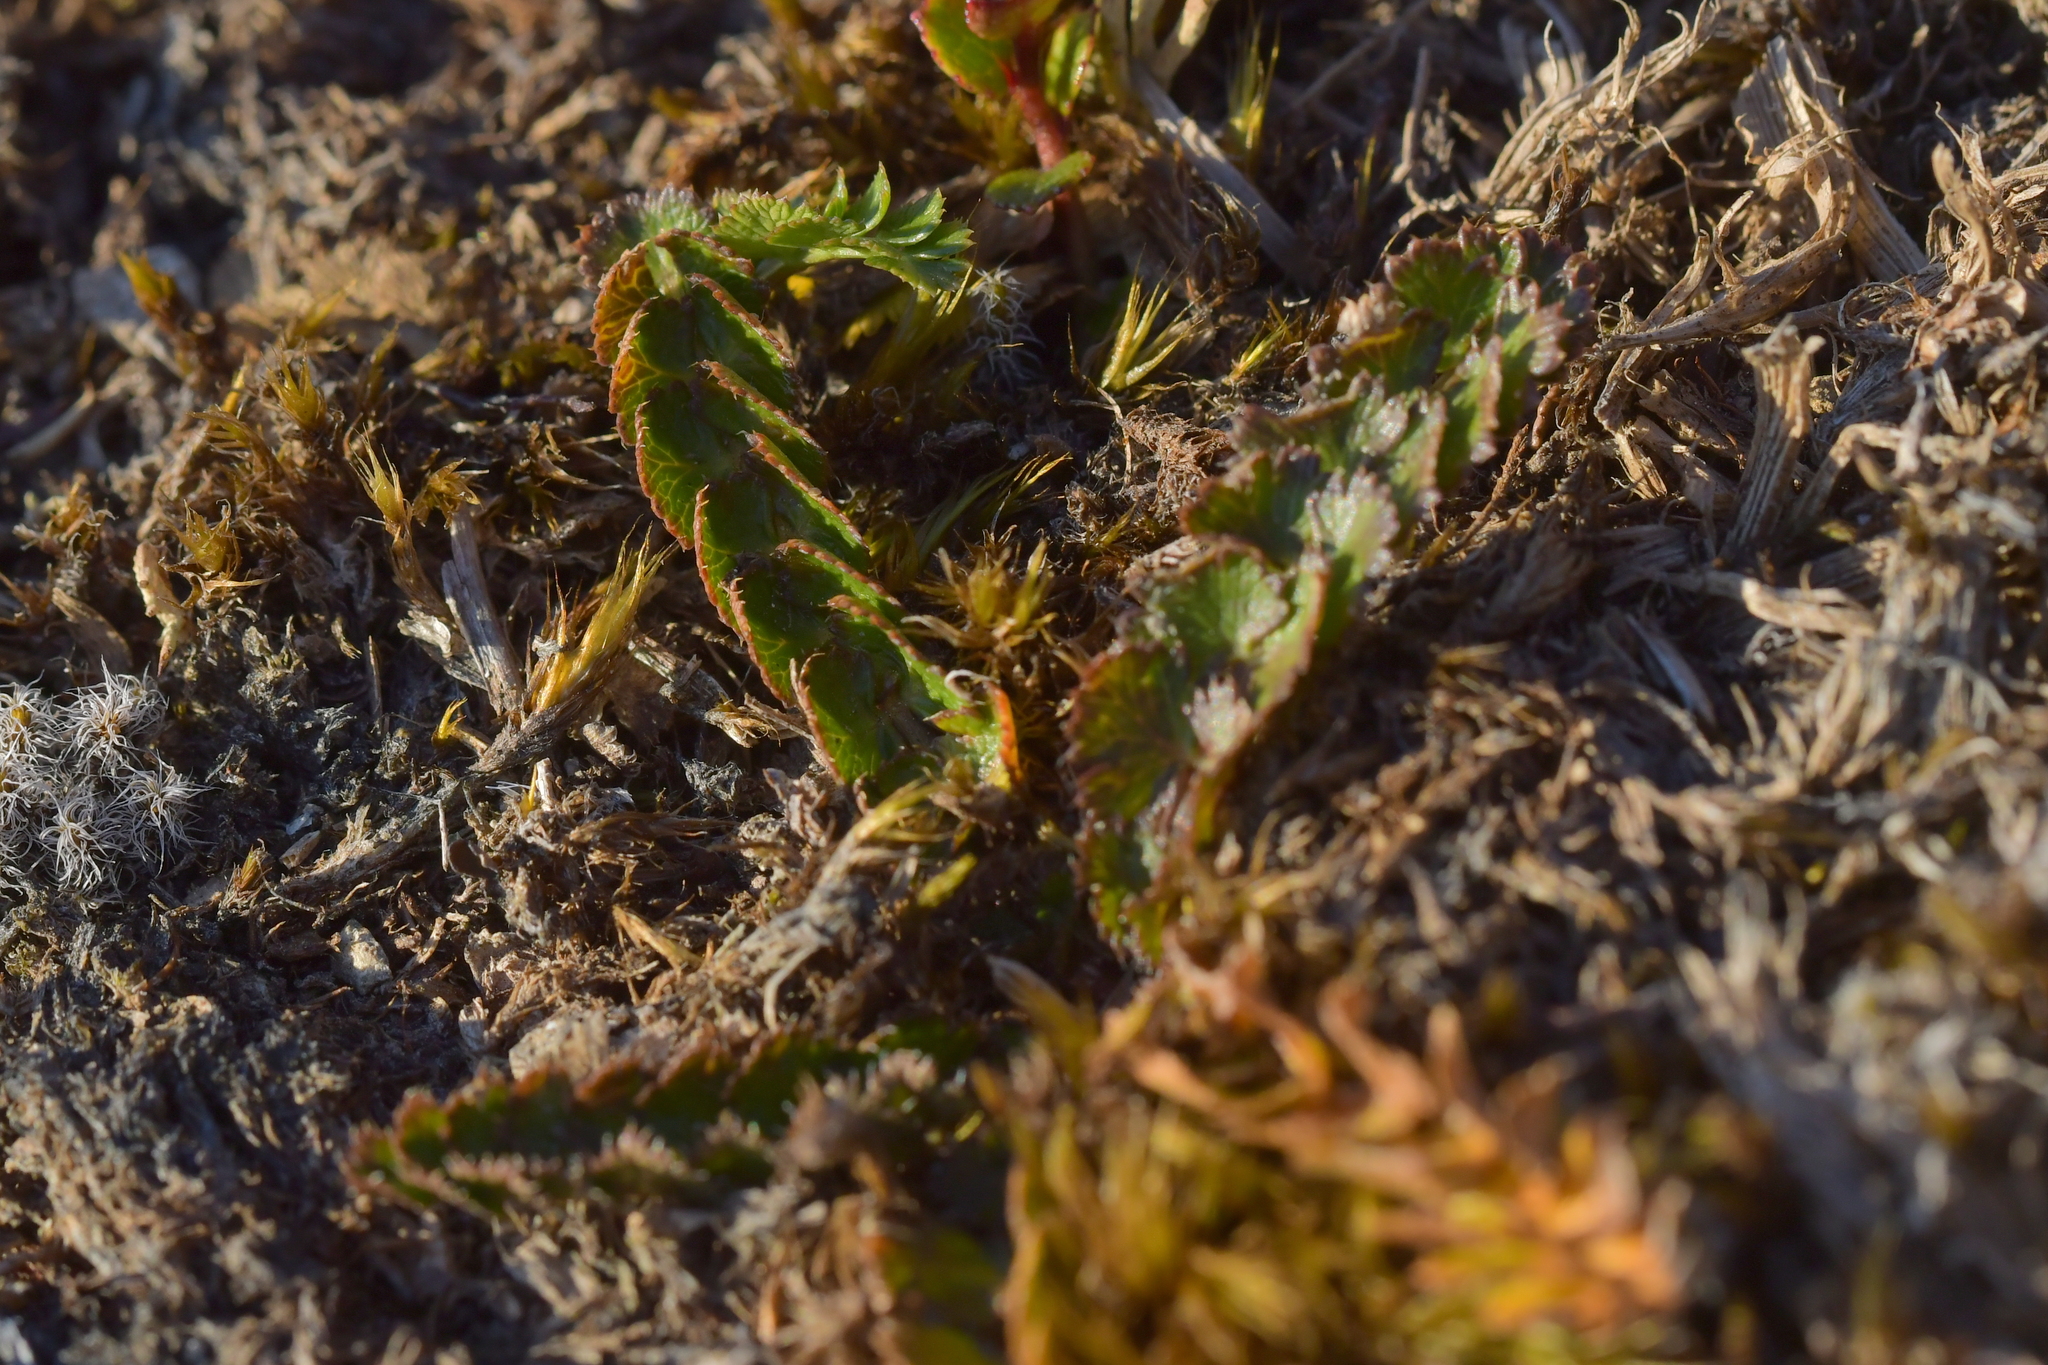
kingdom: Plantae
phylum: Tracheophyta
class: Magnoliopsida
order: Apiales
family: Apiaceae
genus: Anisotome
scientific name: Anisotome aromatica
